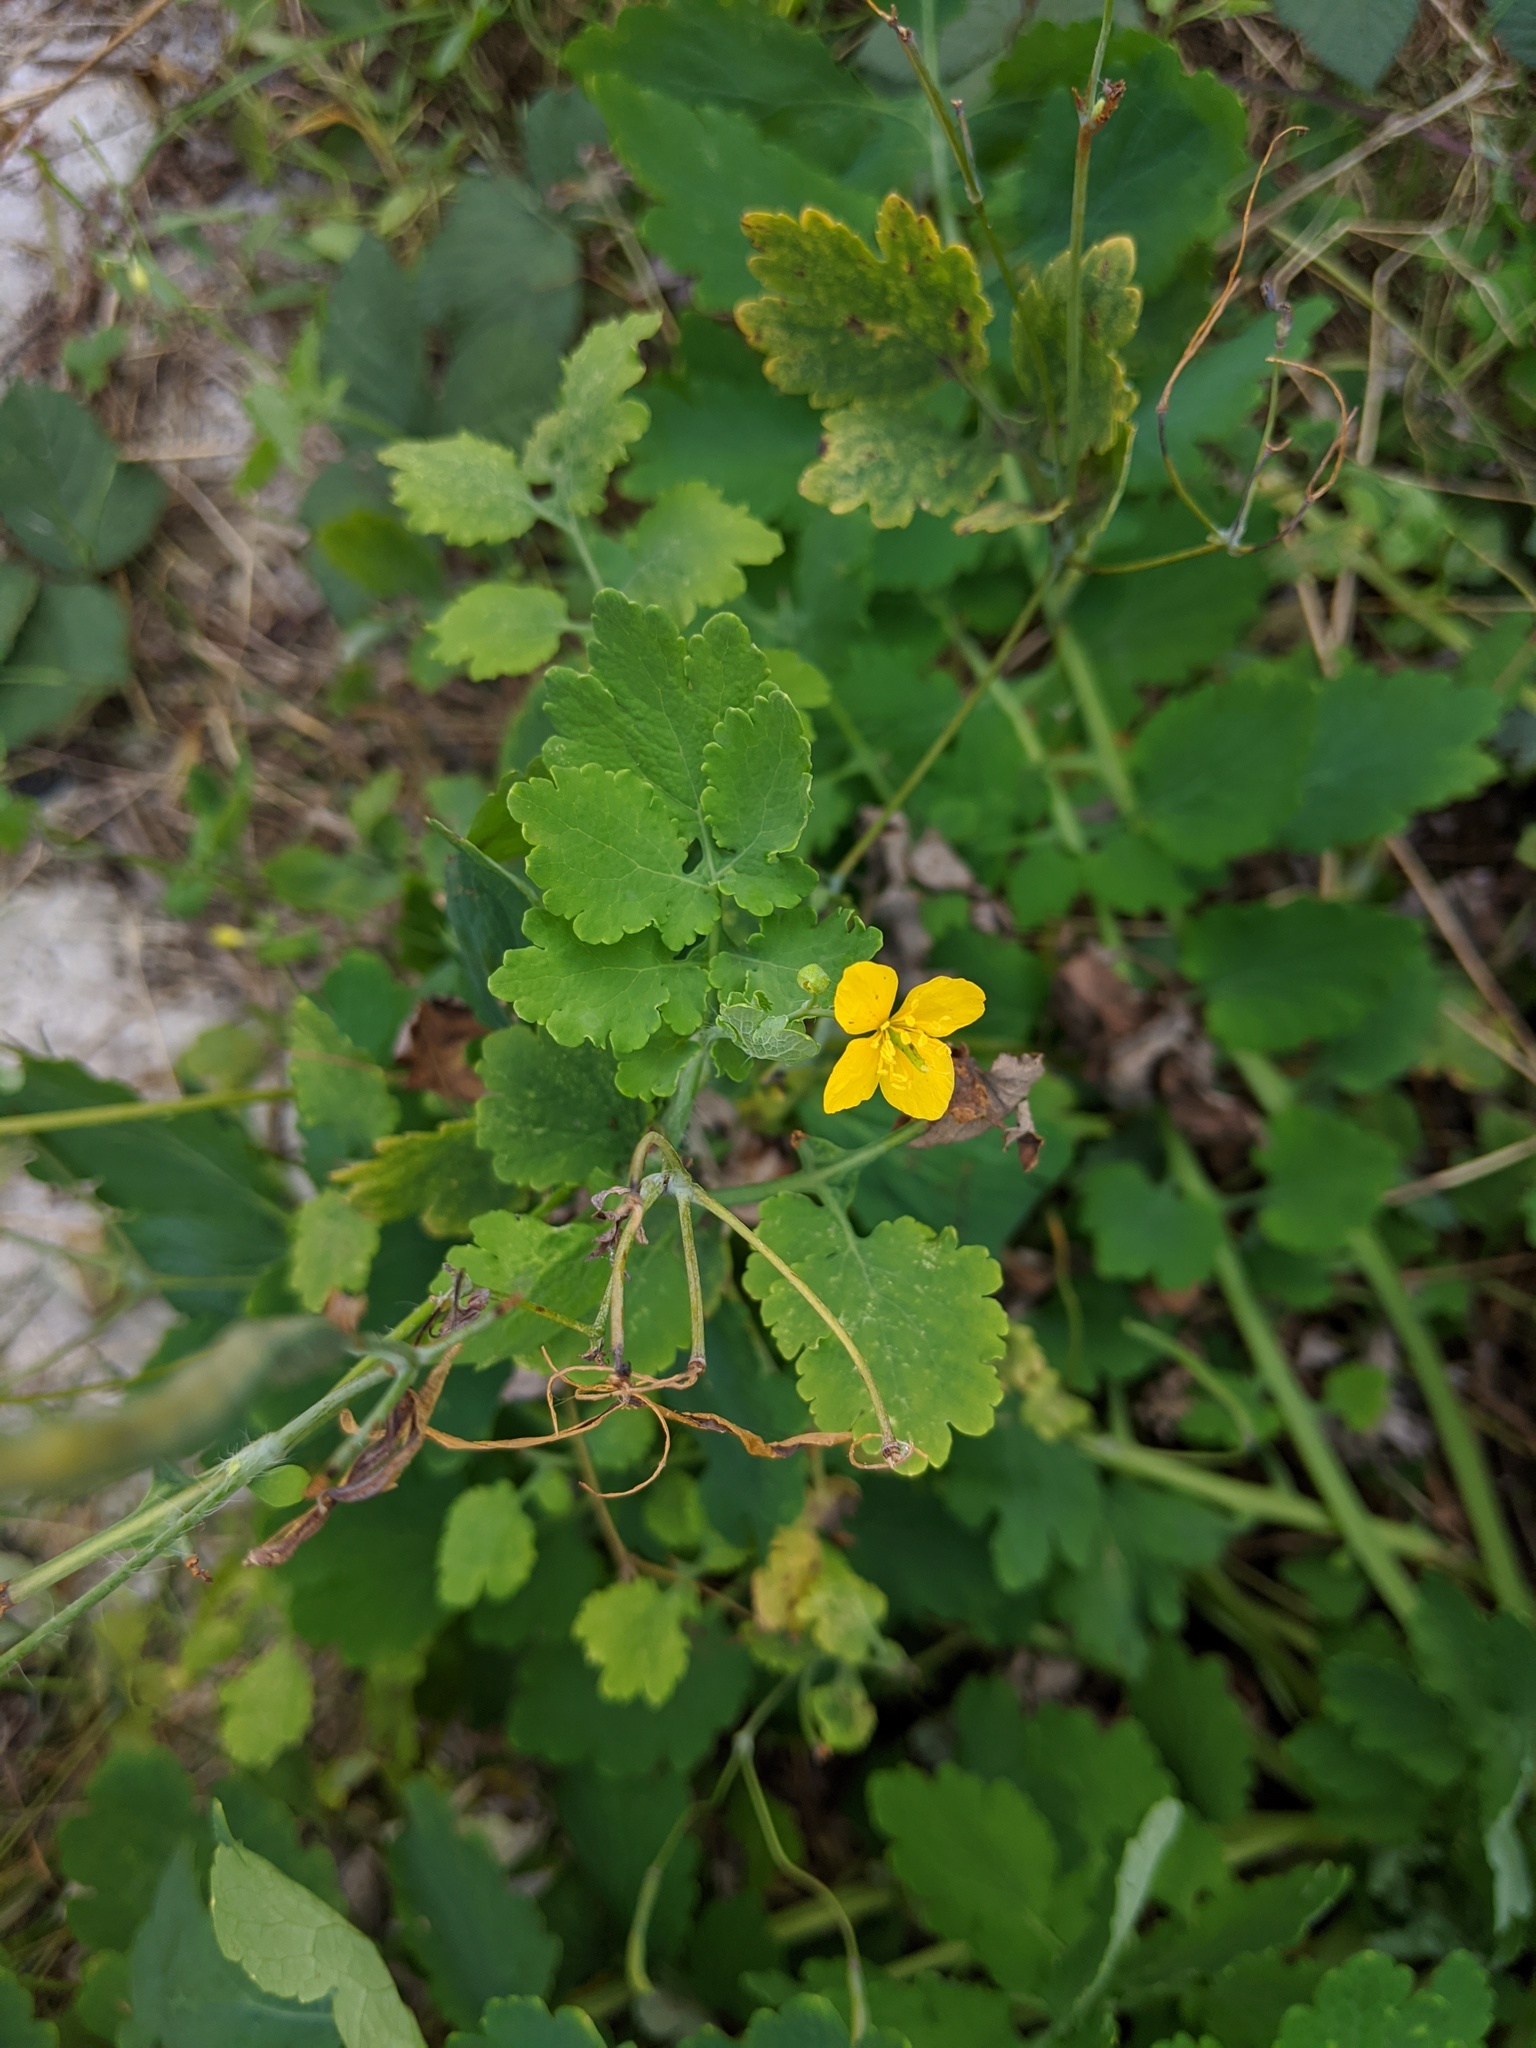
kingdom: Plantae
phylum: Tracheophyta
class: Magnoliopsida
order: Ranunculales
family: Papaveraceae
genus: Chelidonium
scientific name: Chelidonium majus
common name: Greater celandine
